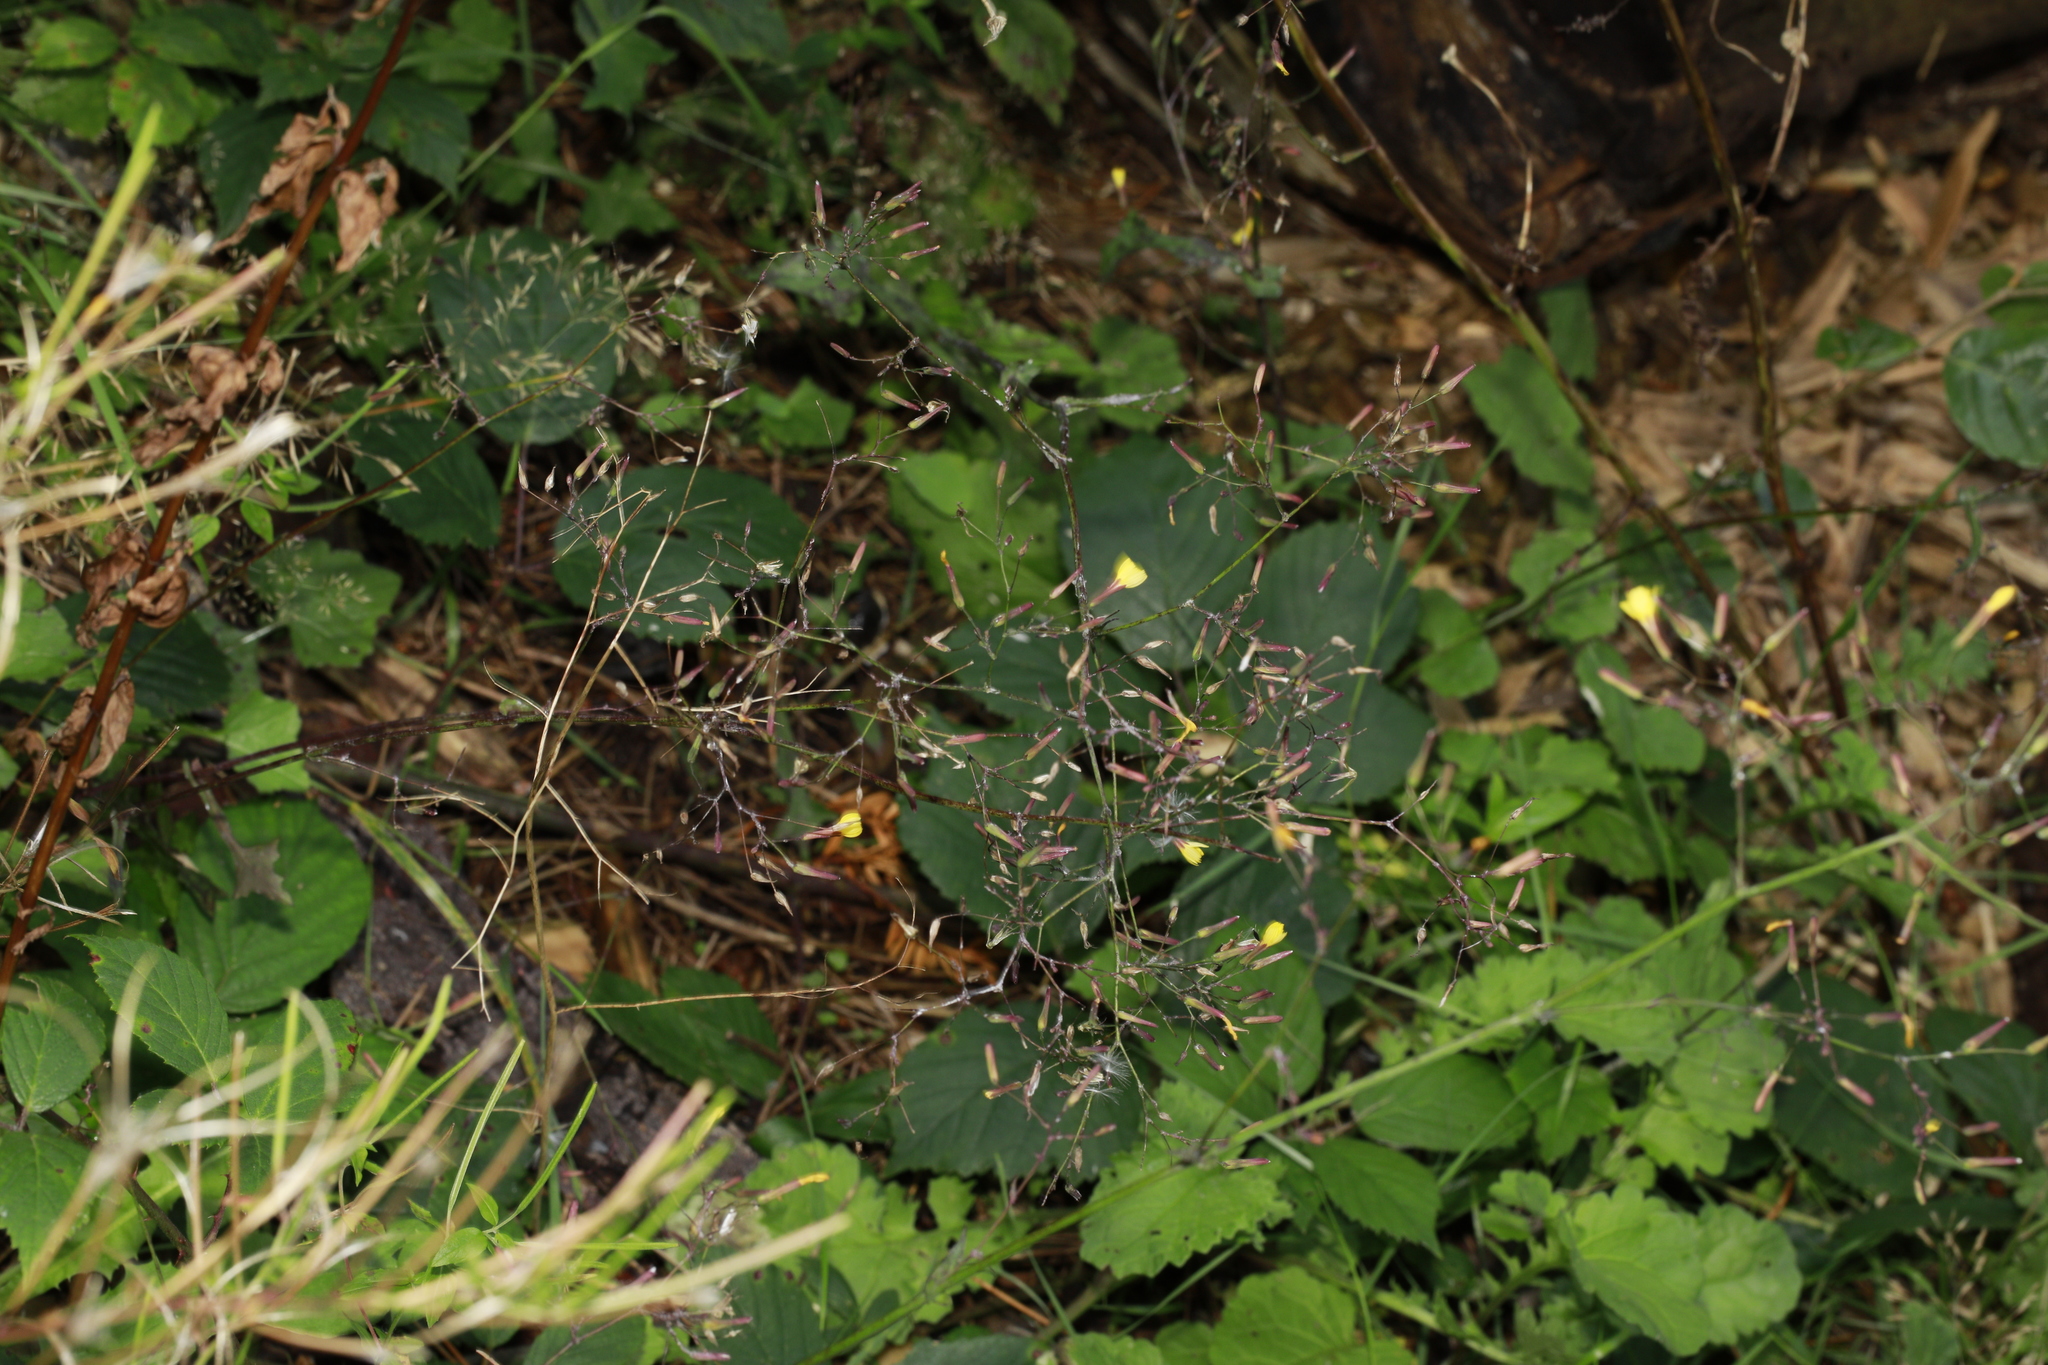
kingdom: Plantae
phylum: Tracheophyta
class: Magnoliopsida
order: Asterales
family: Asteraceae
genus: Mycelis
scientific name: Mycelis muralis
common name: Wall lettuce
